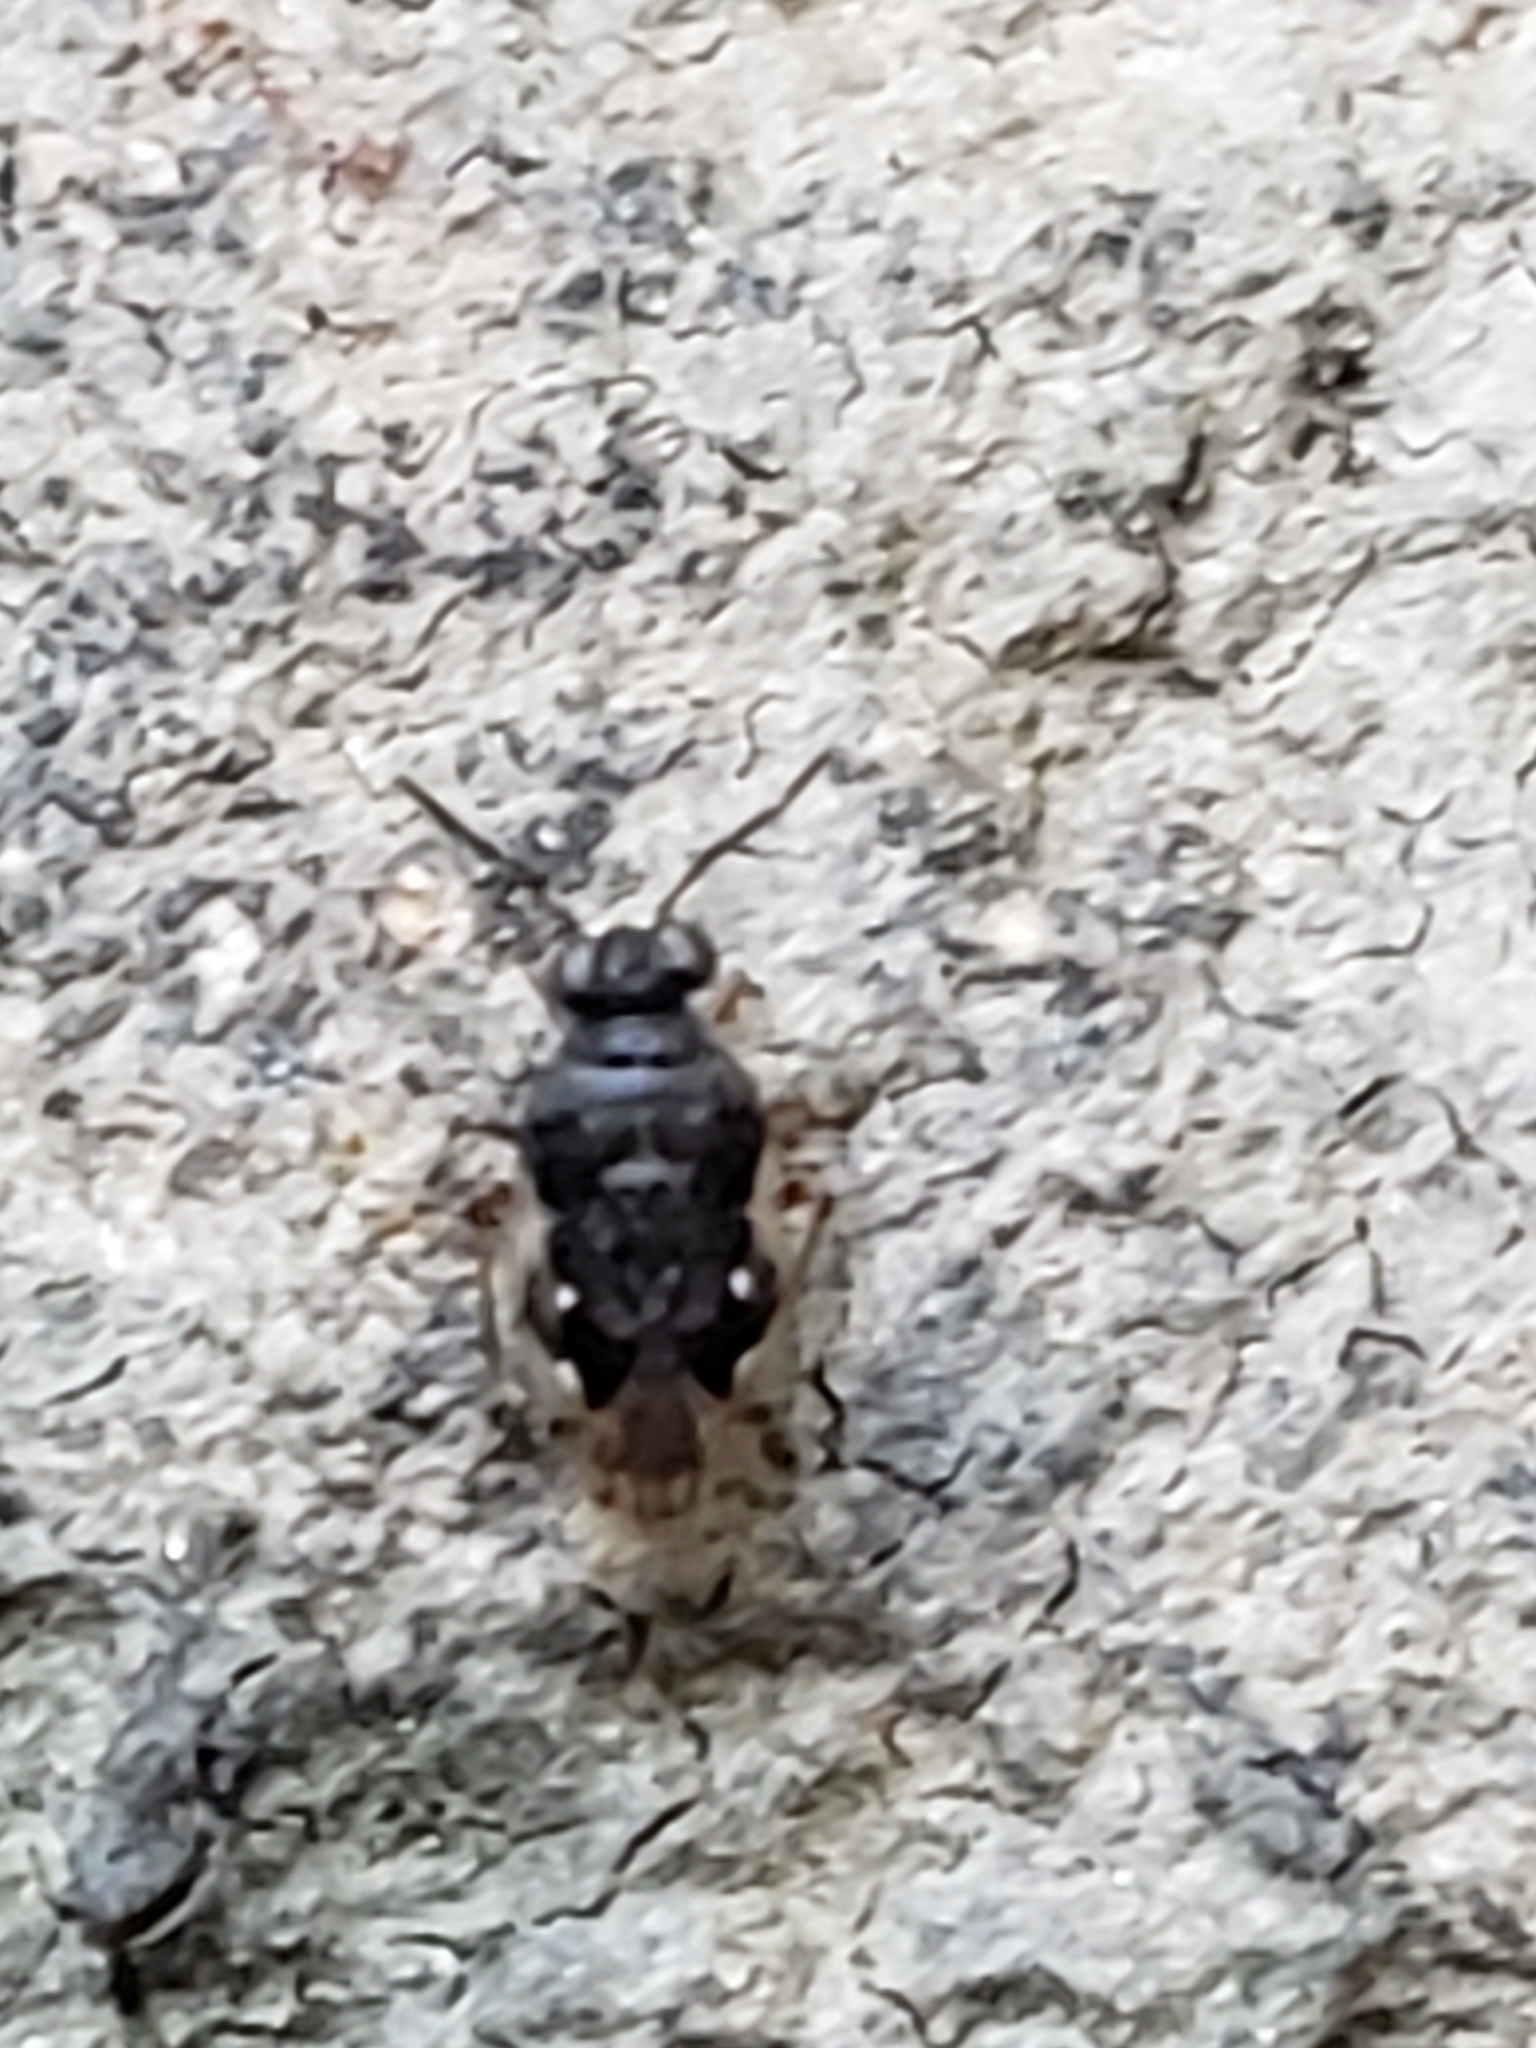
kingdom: Animalia
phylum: Arthropoda
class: Insecta
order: Hemiptera
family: Saldidae
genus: Micracanthia
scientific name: Micracanthia
